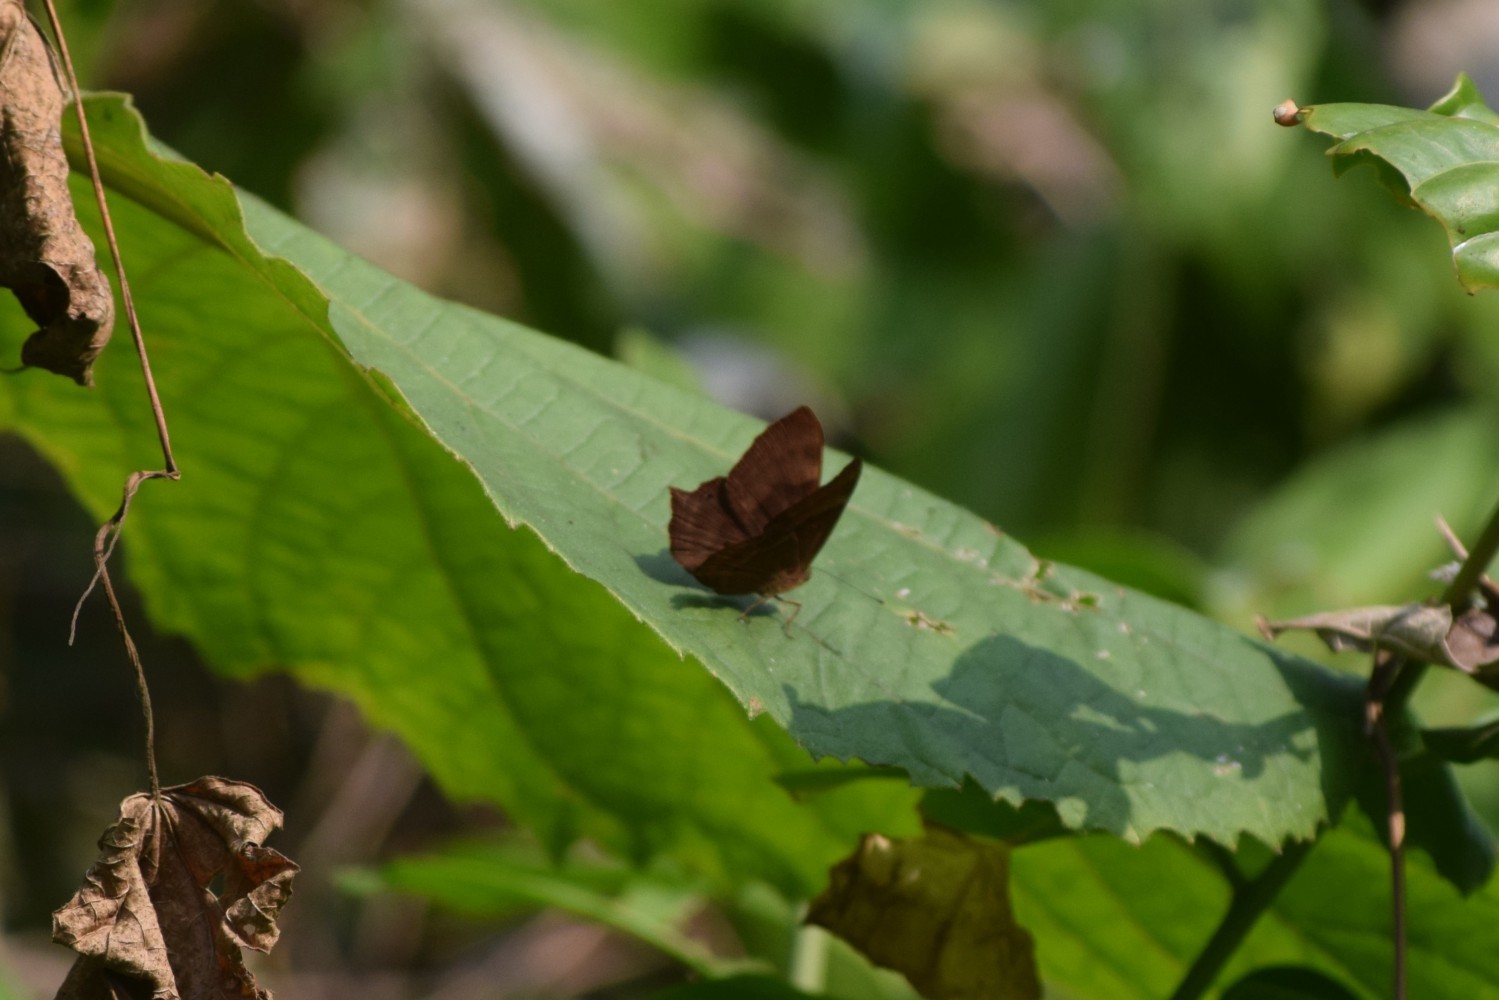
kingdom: Animalia
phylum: Arthropoda
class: Insecta
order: Lepidoptera
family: Lycaenidae
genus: Abisara
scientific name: Abisara bifasciata
